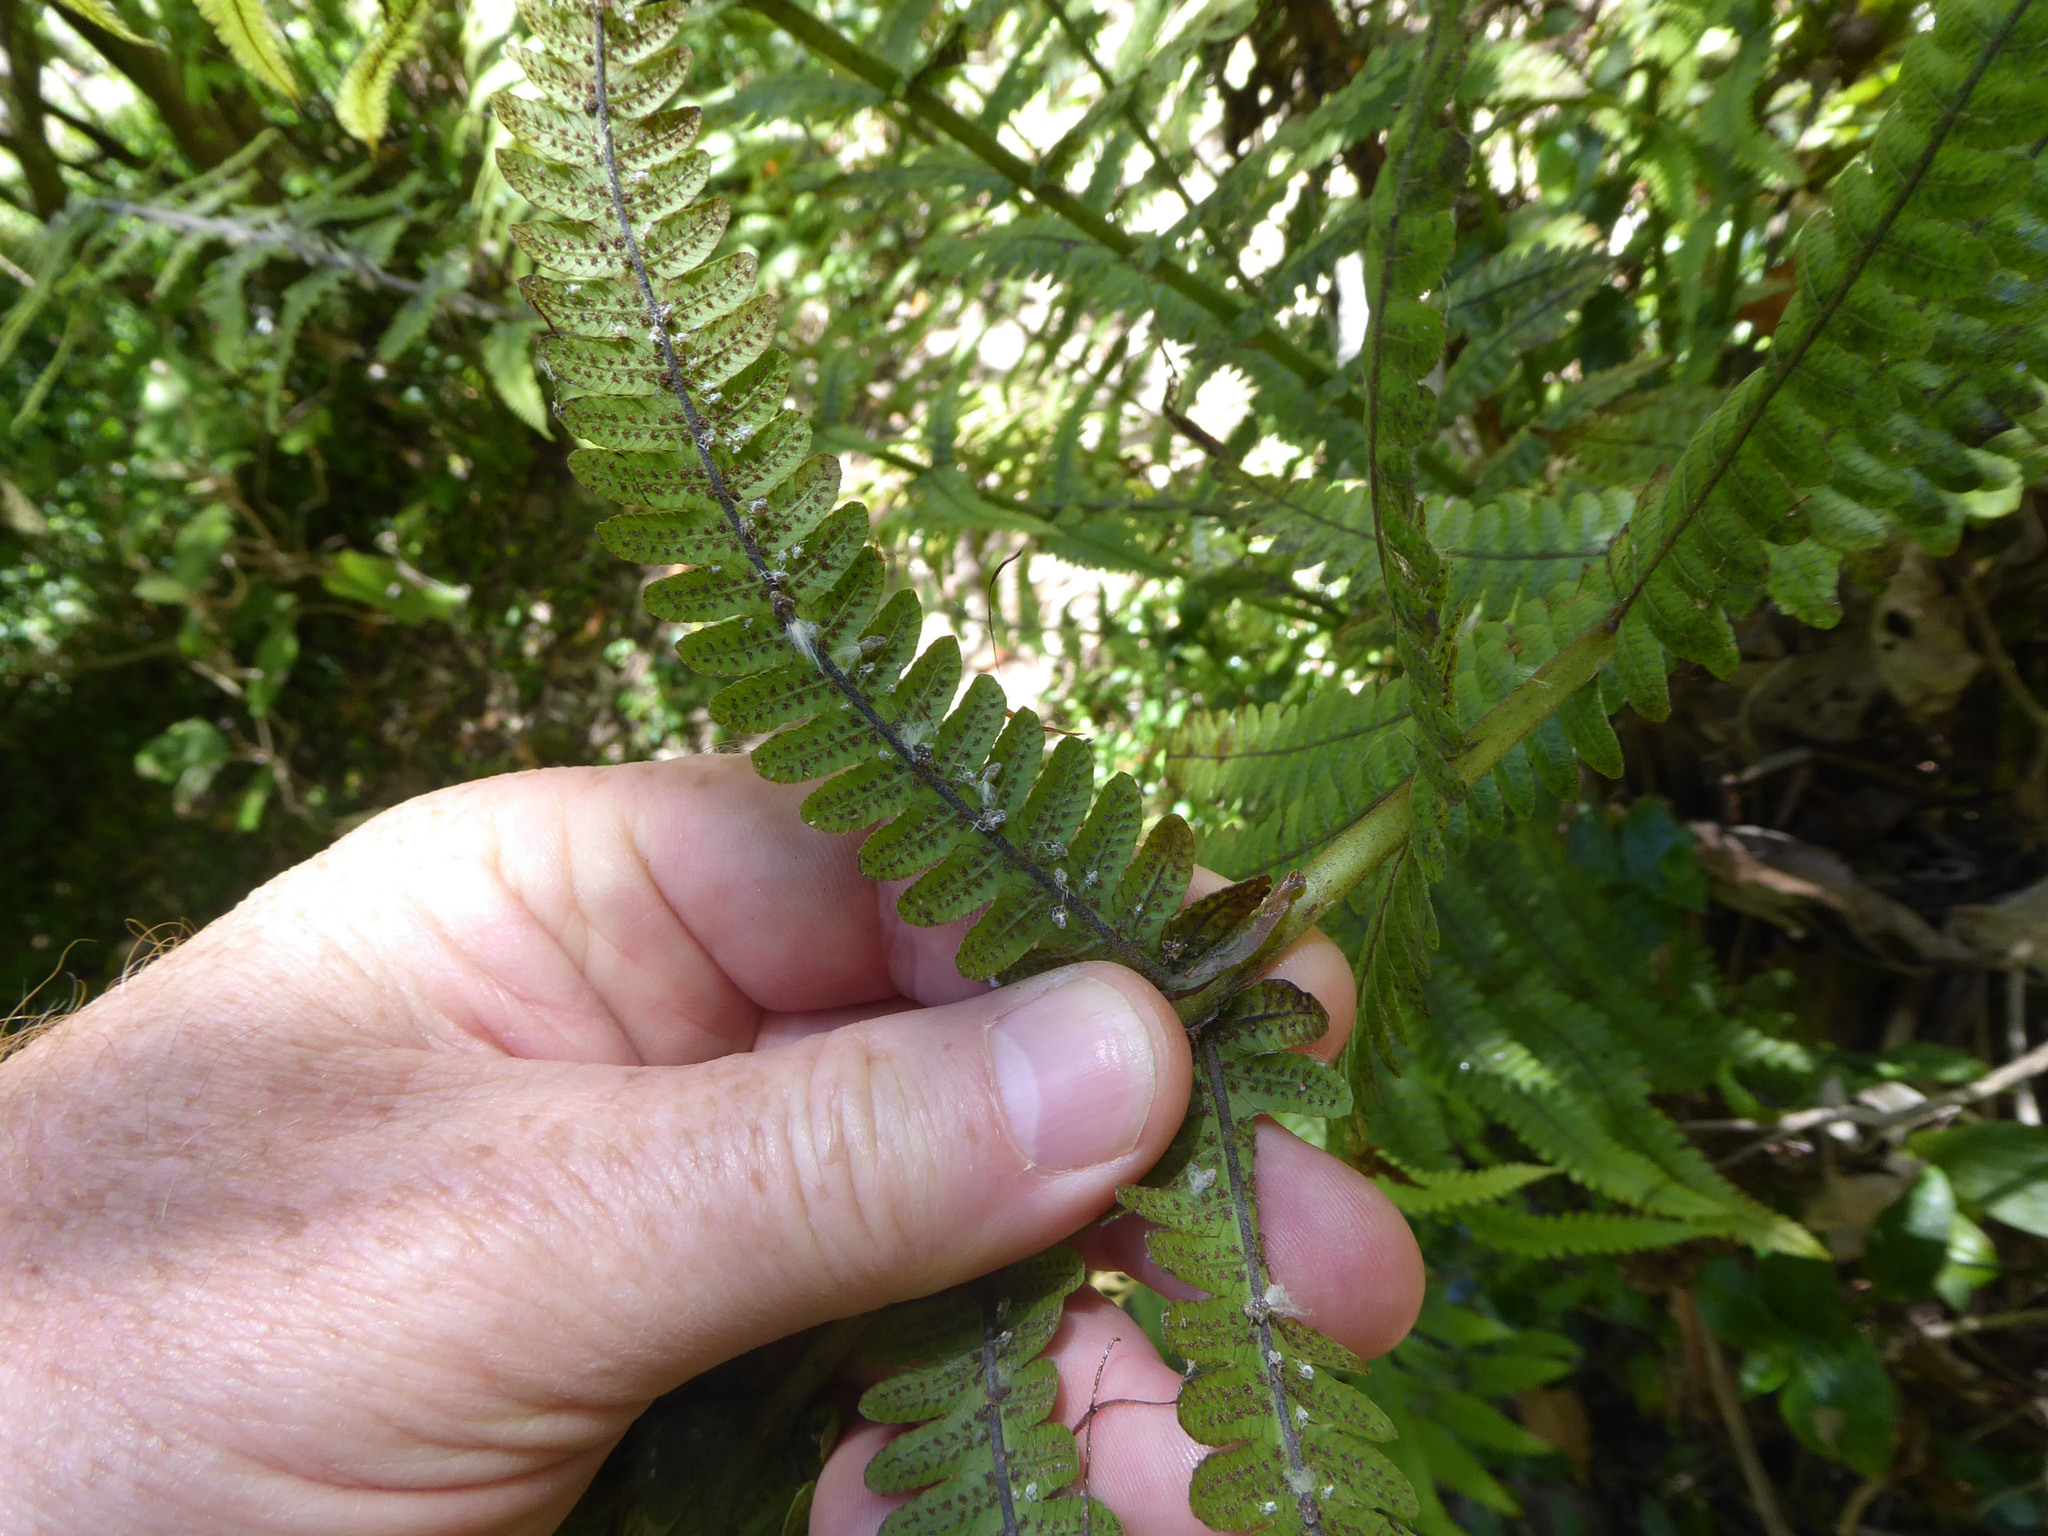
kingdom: Plantae
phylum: Tracheophyta
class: Polypodiopsida
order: Polypodiales
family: Thelypteridaceae
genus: Pakau
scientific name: Pakau pennigera
